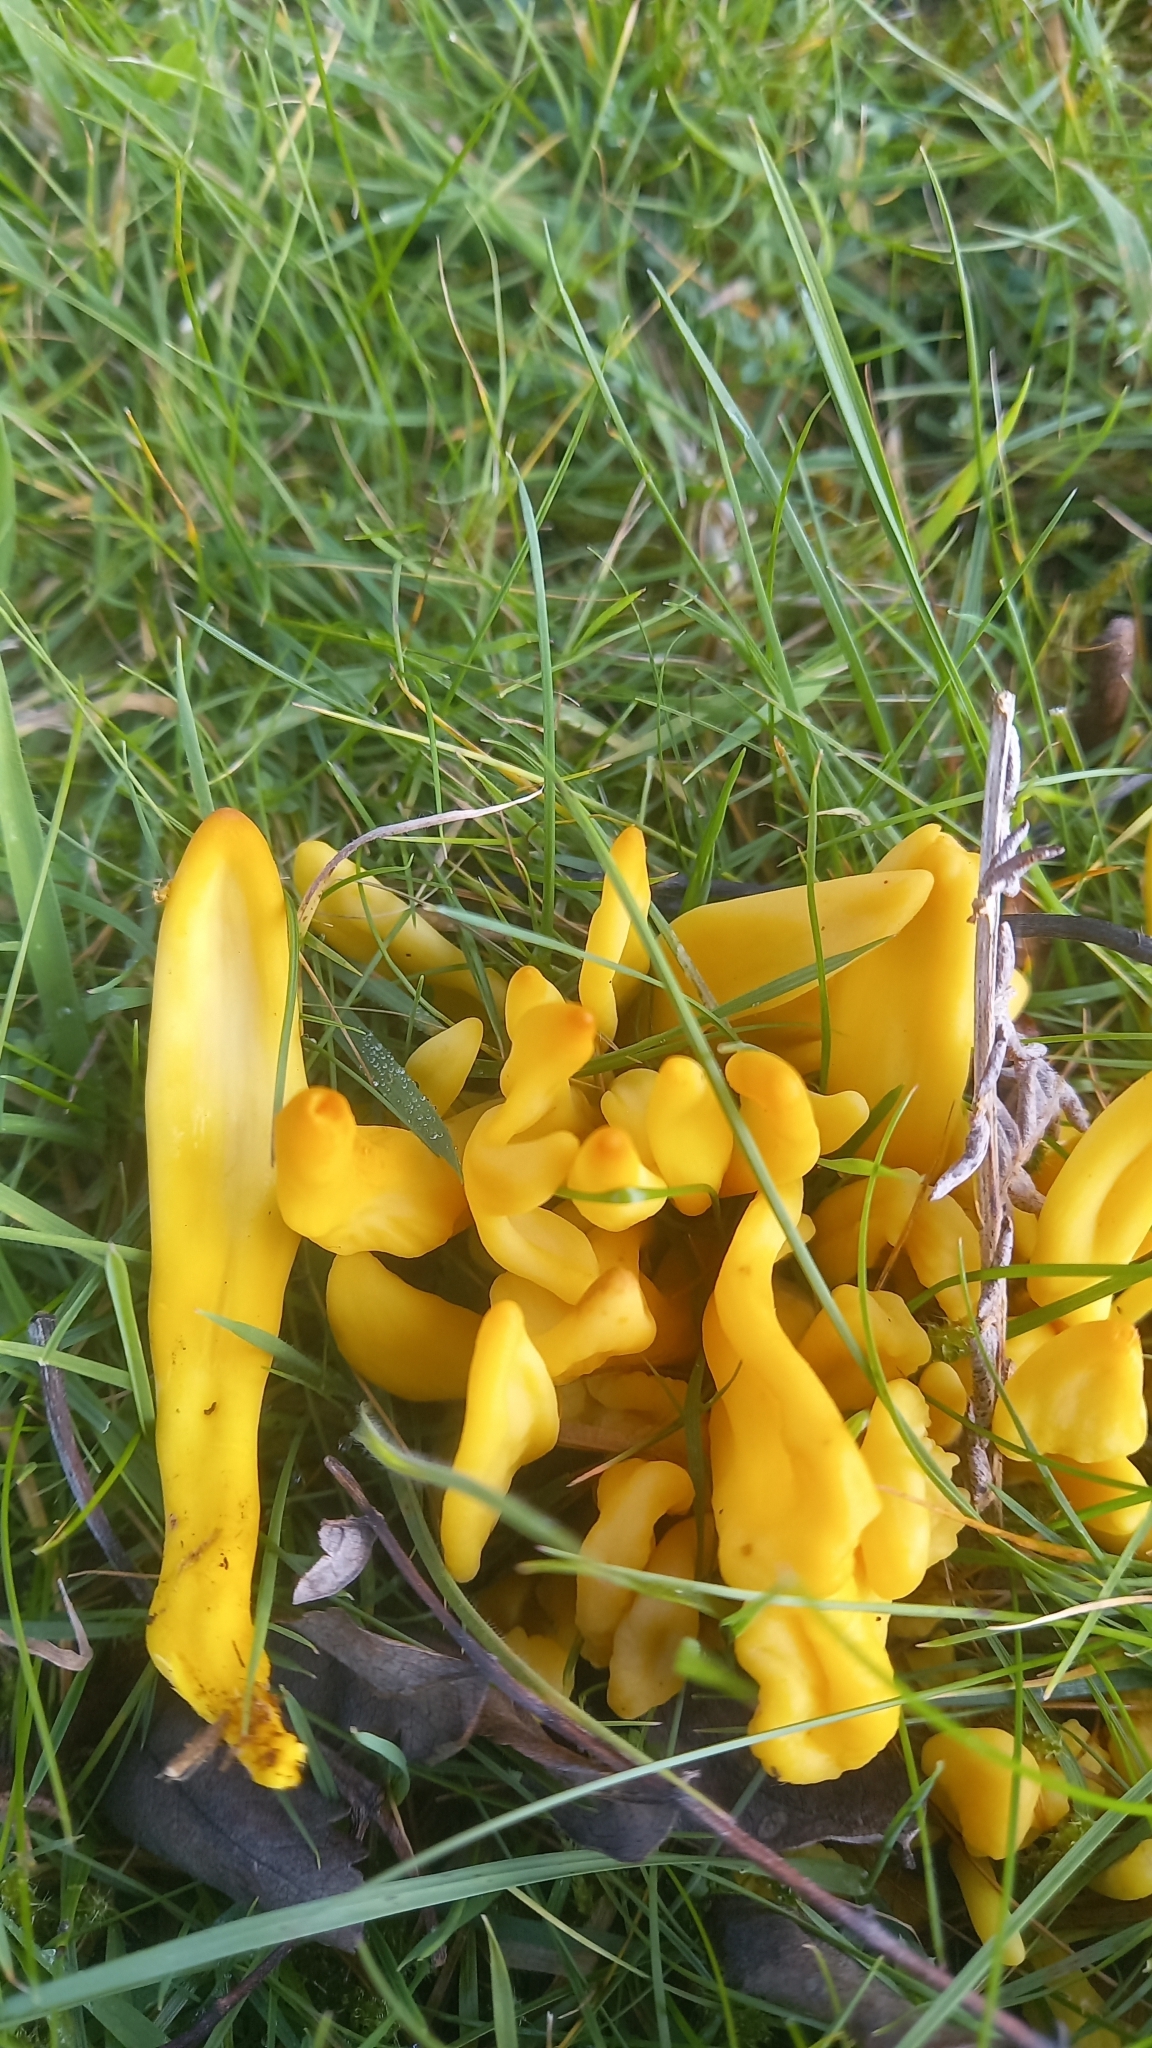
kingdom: Fungi
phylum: Basidiomycota
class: Agaricomycetes
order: Agaricales
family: Clavariaceae
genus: Clavulinopsis
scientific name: Clavulinopsis fusiformis
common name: Golden spindles
